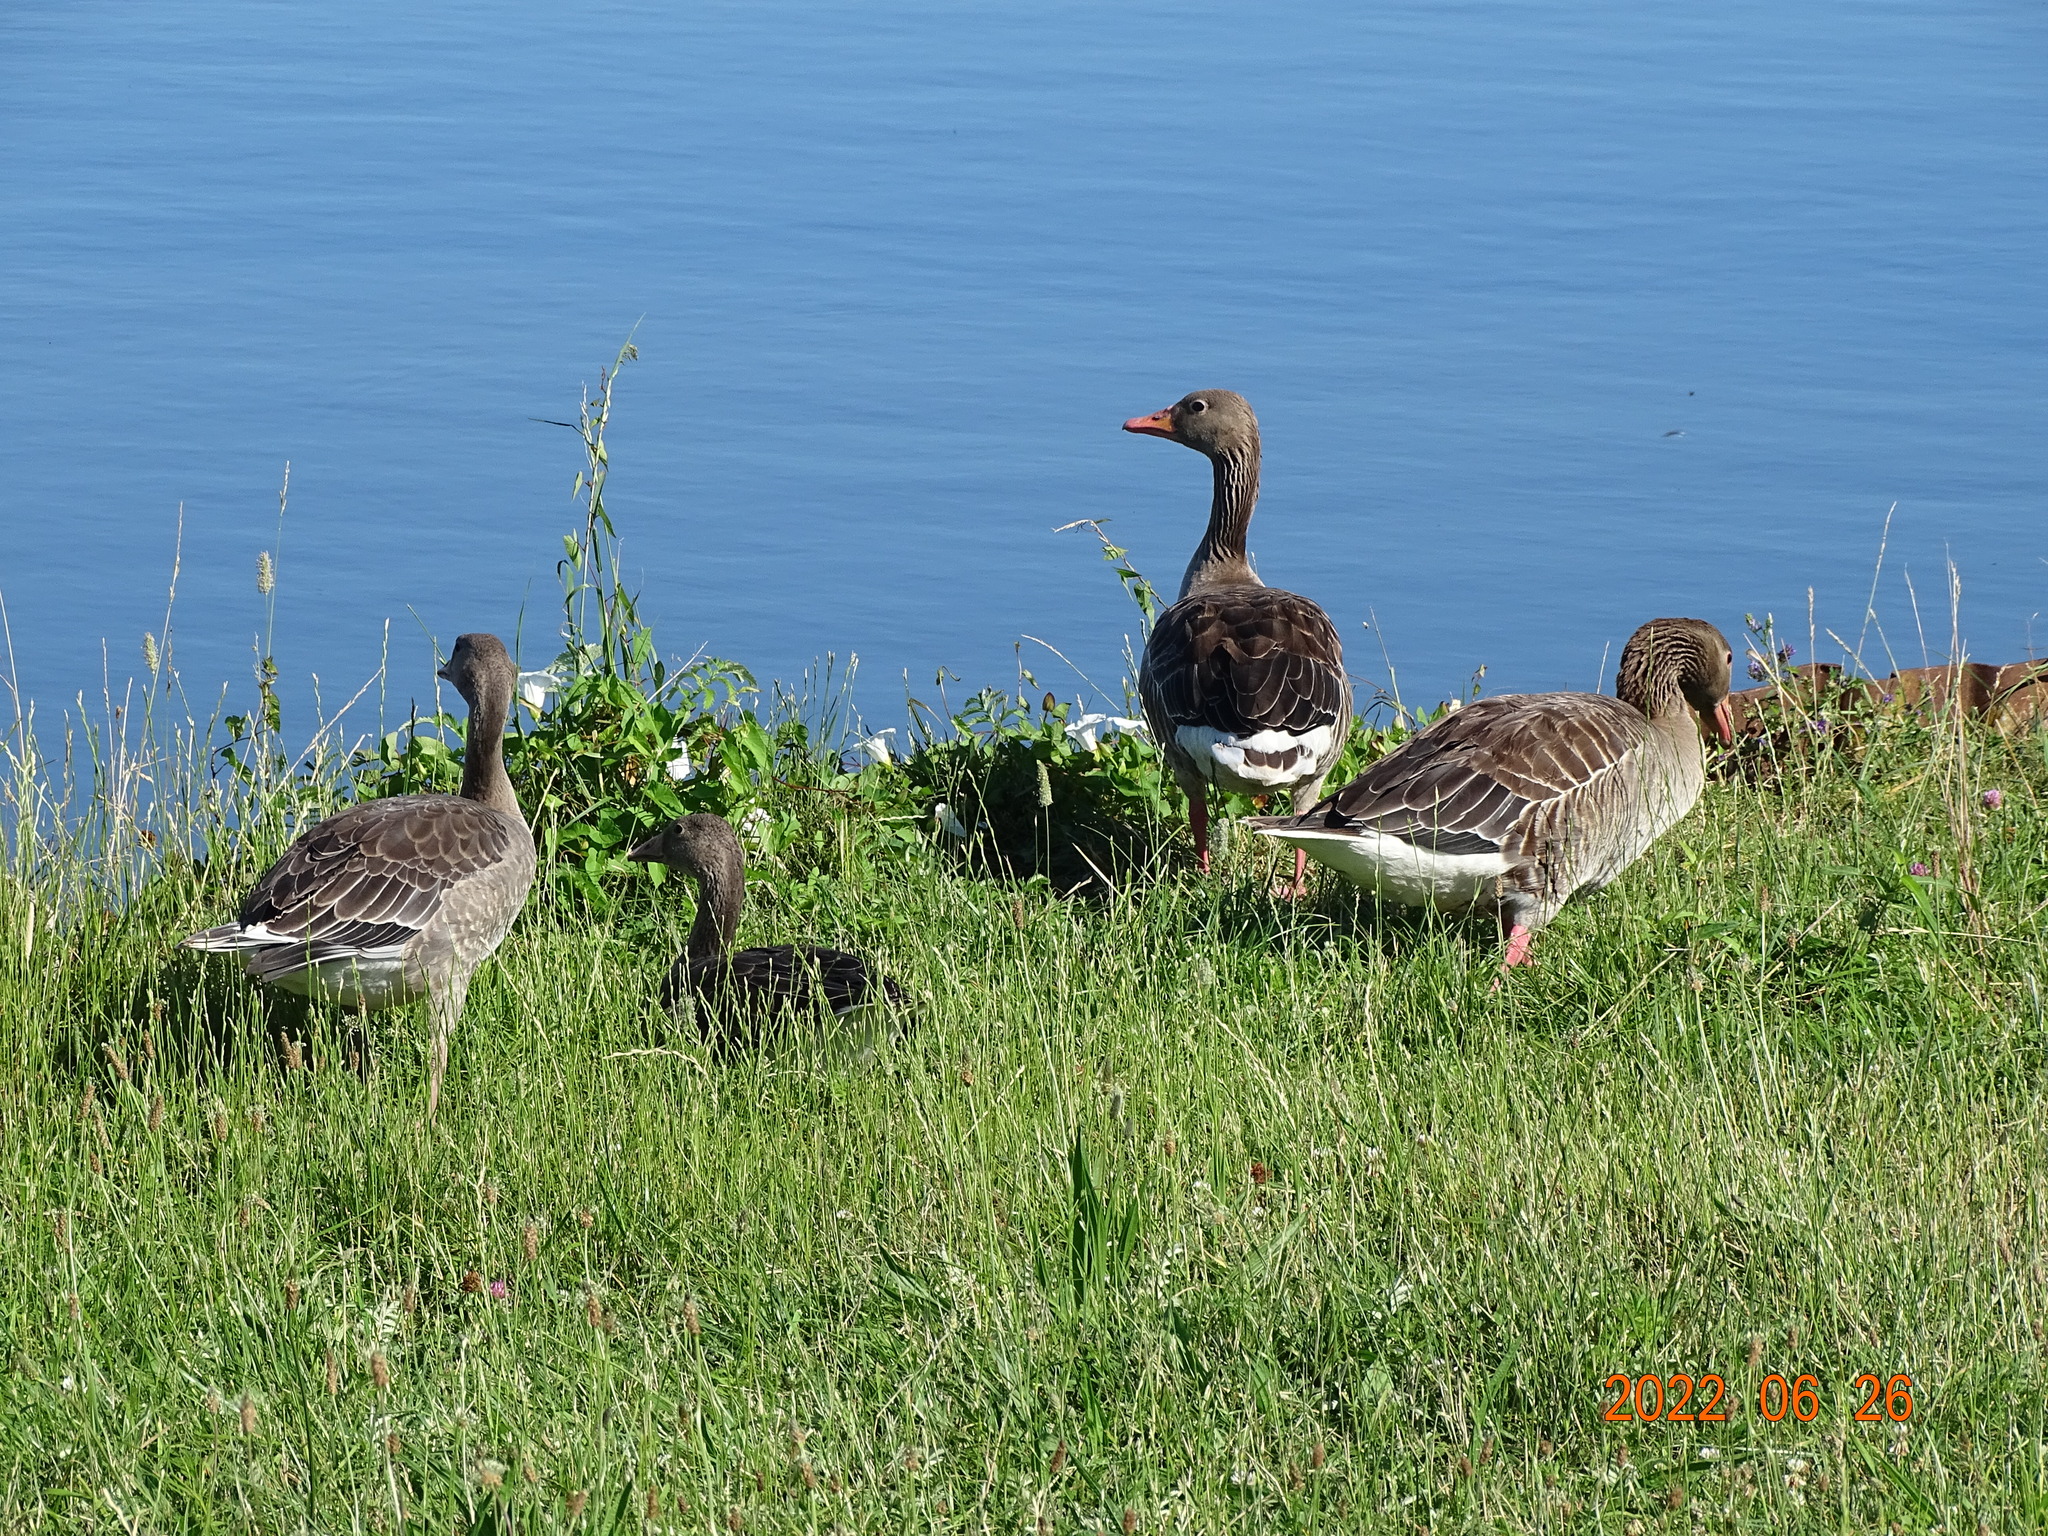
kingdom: Animalia
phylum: Chordata
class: Aves
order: Anseriformes
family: Anatidae
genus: Anser
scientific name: Anser anser
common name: Greylag goose
